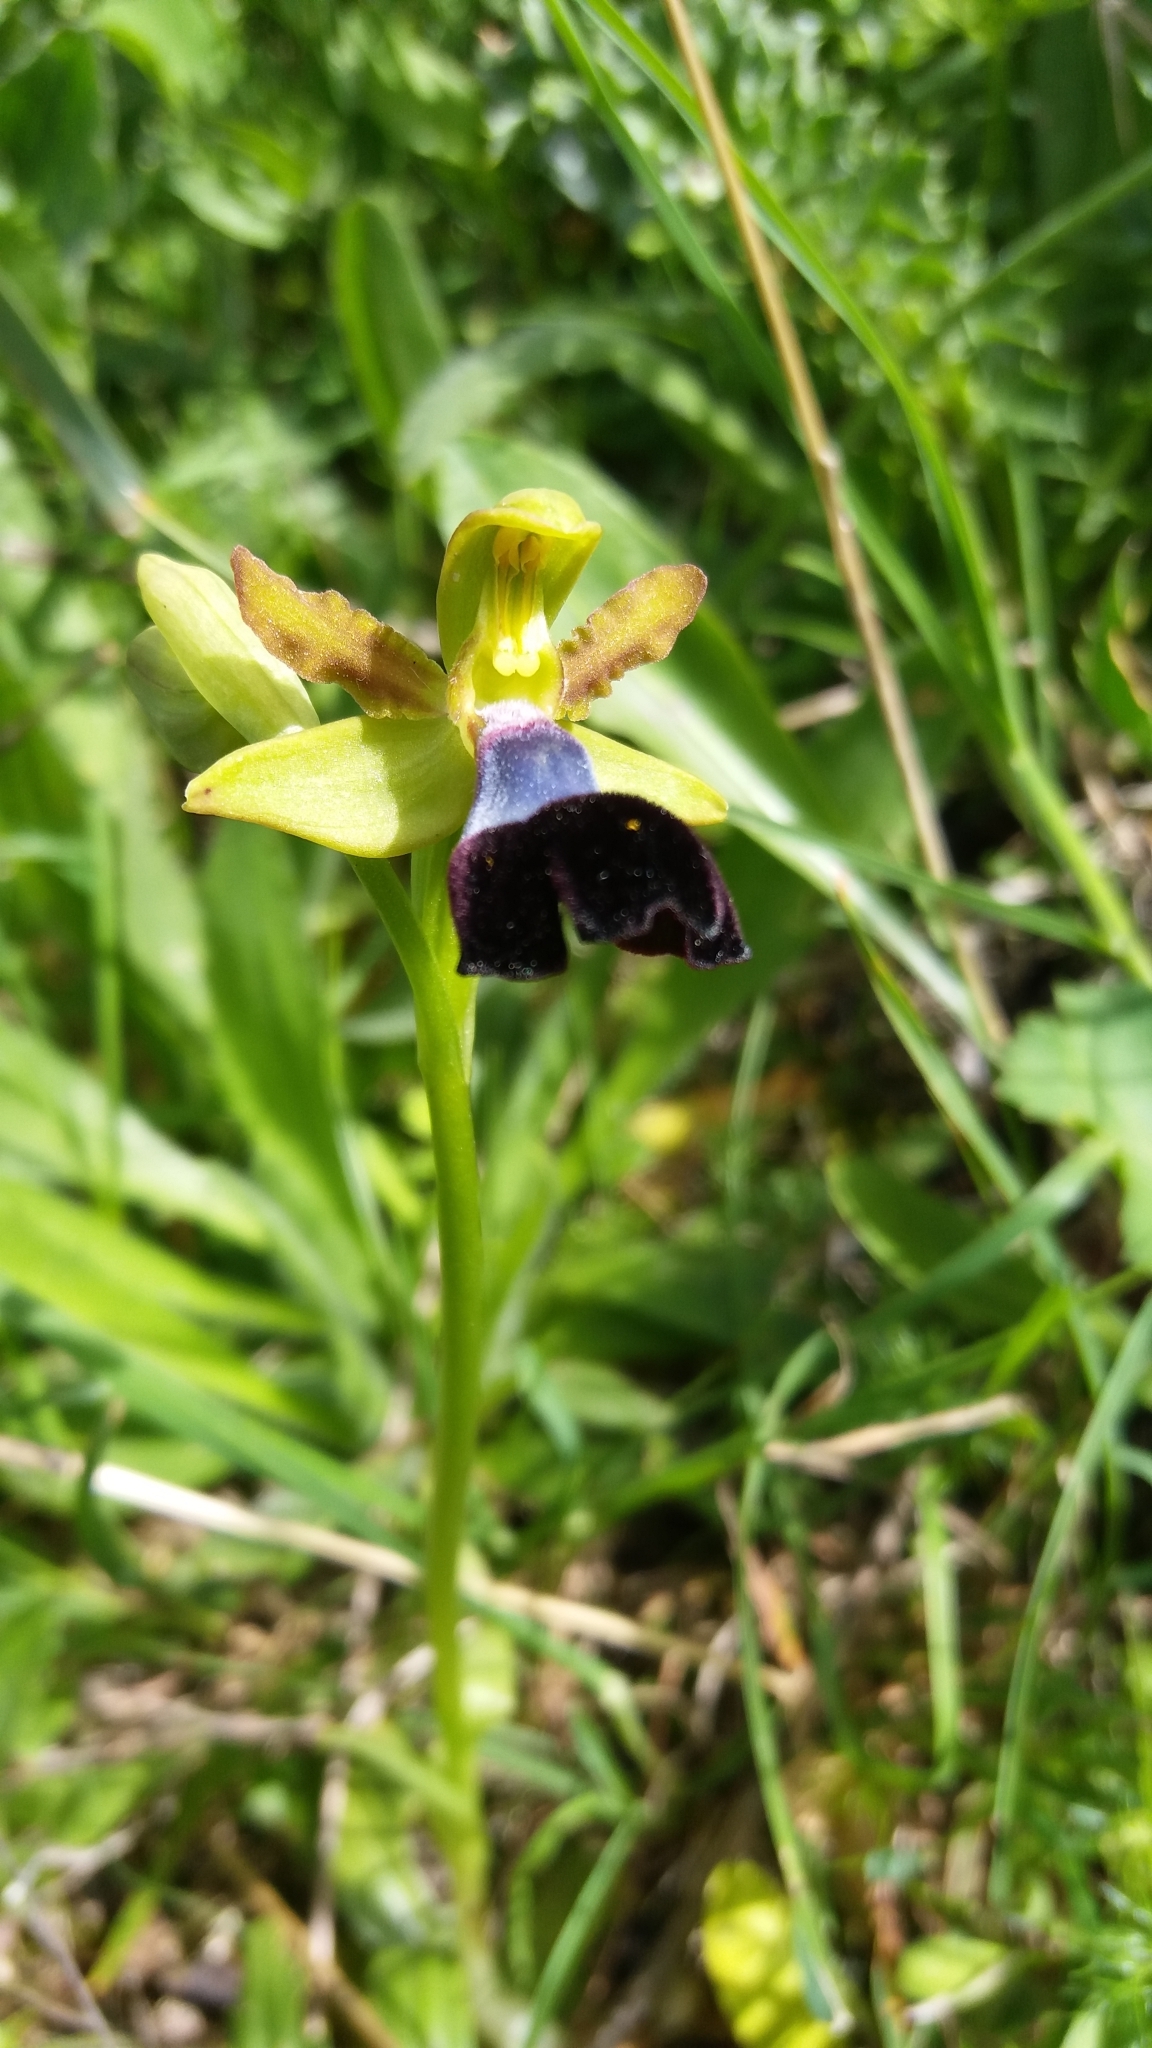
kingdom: Plantae
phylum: Tracheophyta
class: Liliopsida
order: Asparagales
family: Orchidaceae
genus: Ophrys
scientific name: Ophrys atlantica
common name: Atlantic ophrys
